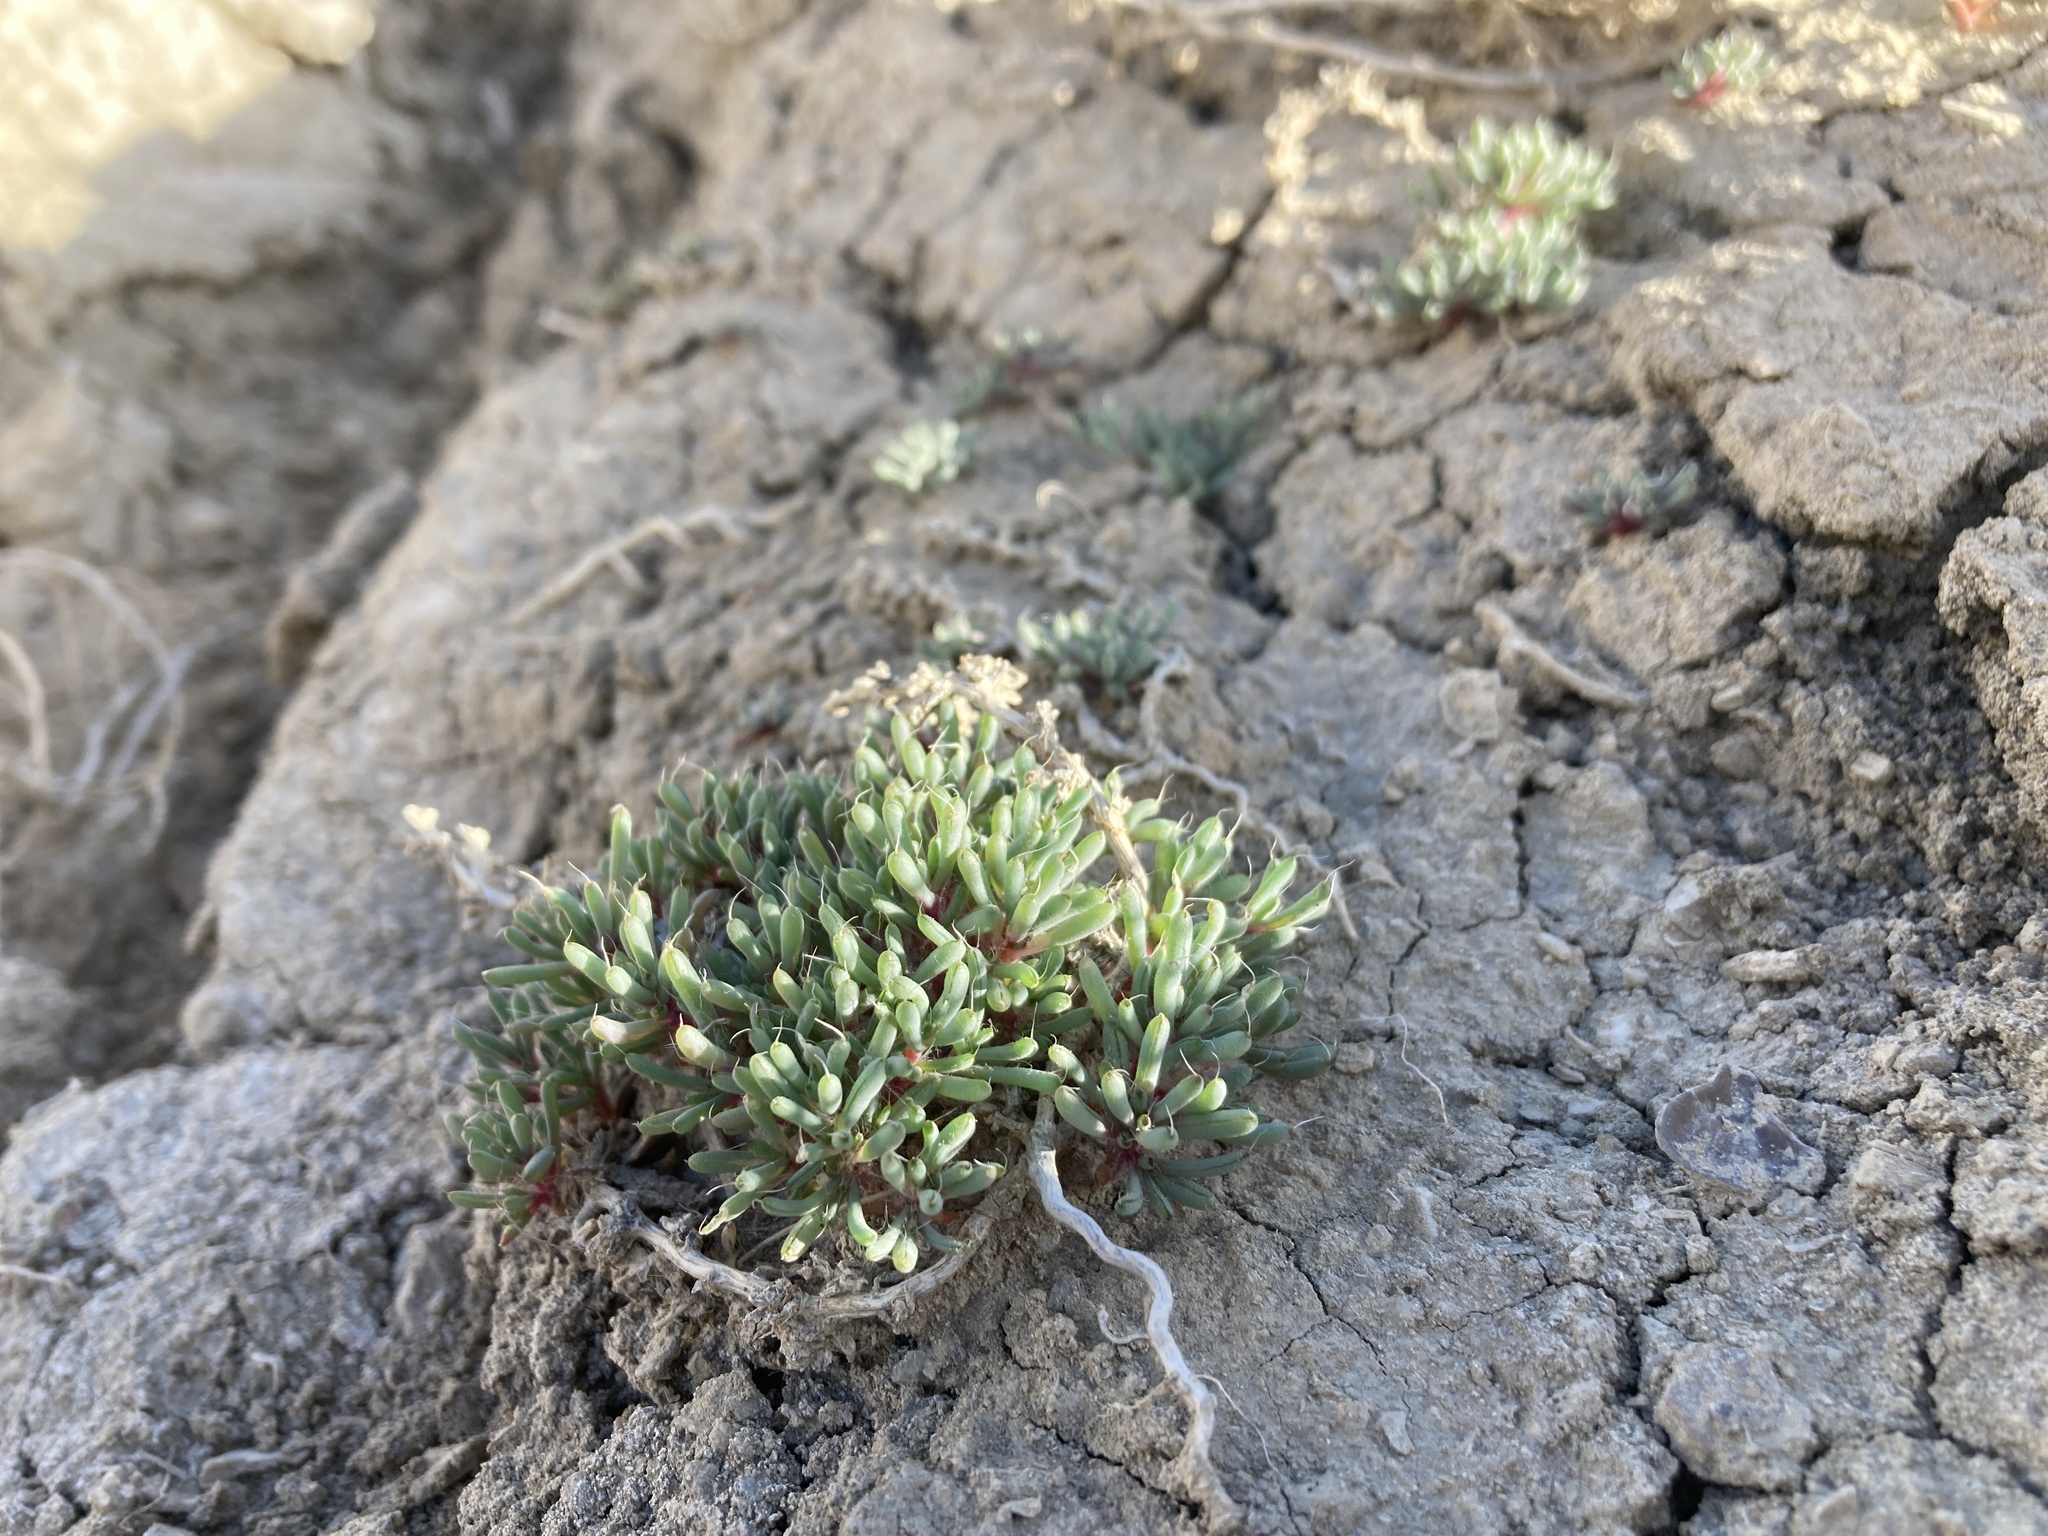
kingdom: Plantae
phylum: Tracheophyta
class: Magnoliopsida
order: Caryophyllales
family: Amaranthaceae
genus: Halogeton
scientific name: Halogeton glomeratus
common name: Saltlover
